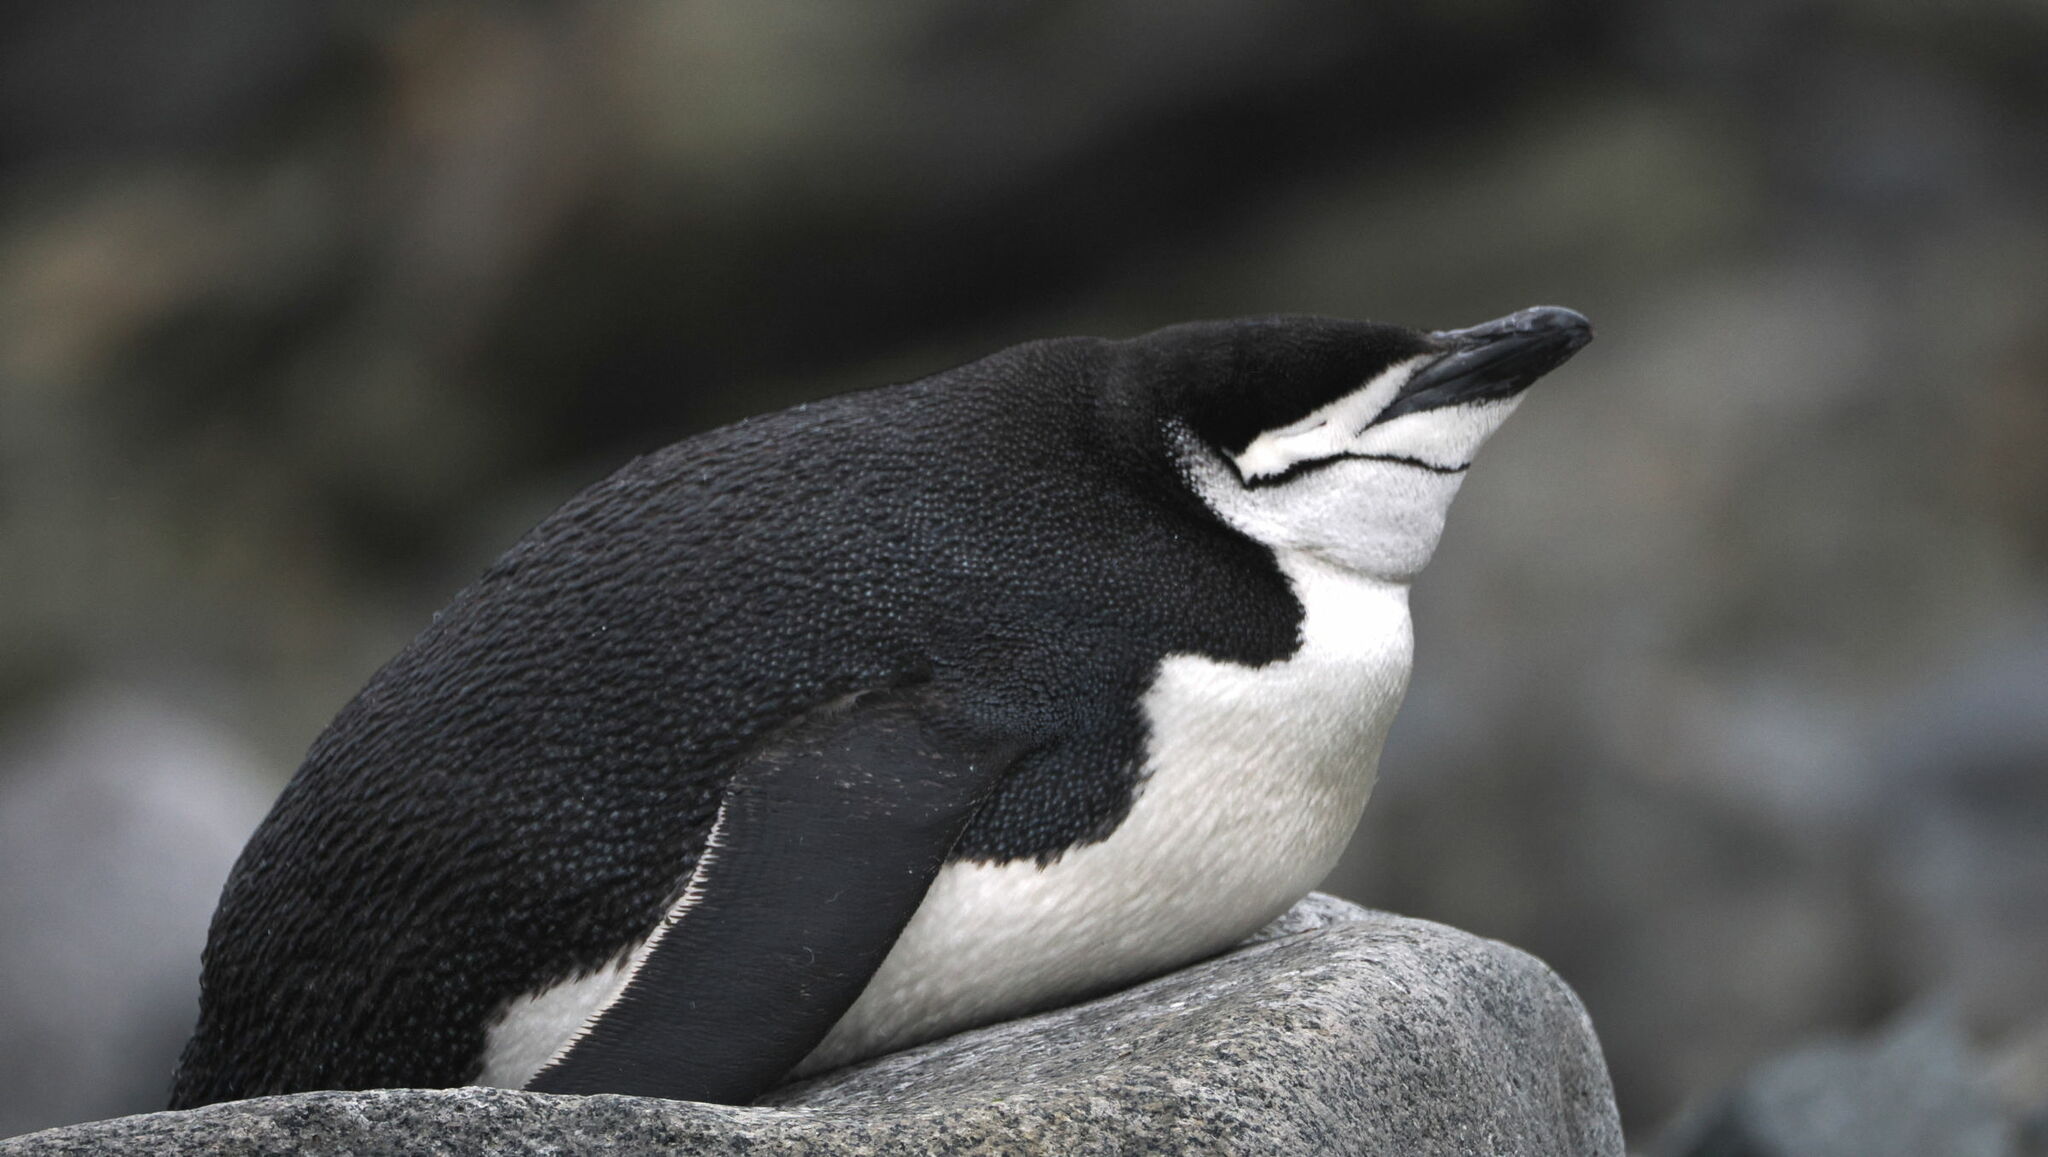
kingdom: Animalia
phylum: Chordata
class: Aves
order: Sphenisciformes
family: Spheniscidae
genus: Pygoscelis
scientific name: Pygoscelis antarcticus
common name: Chinstrap penguin
